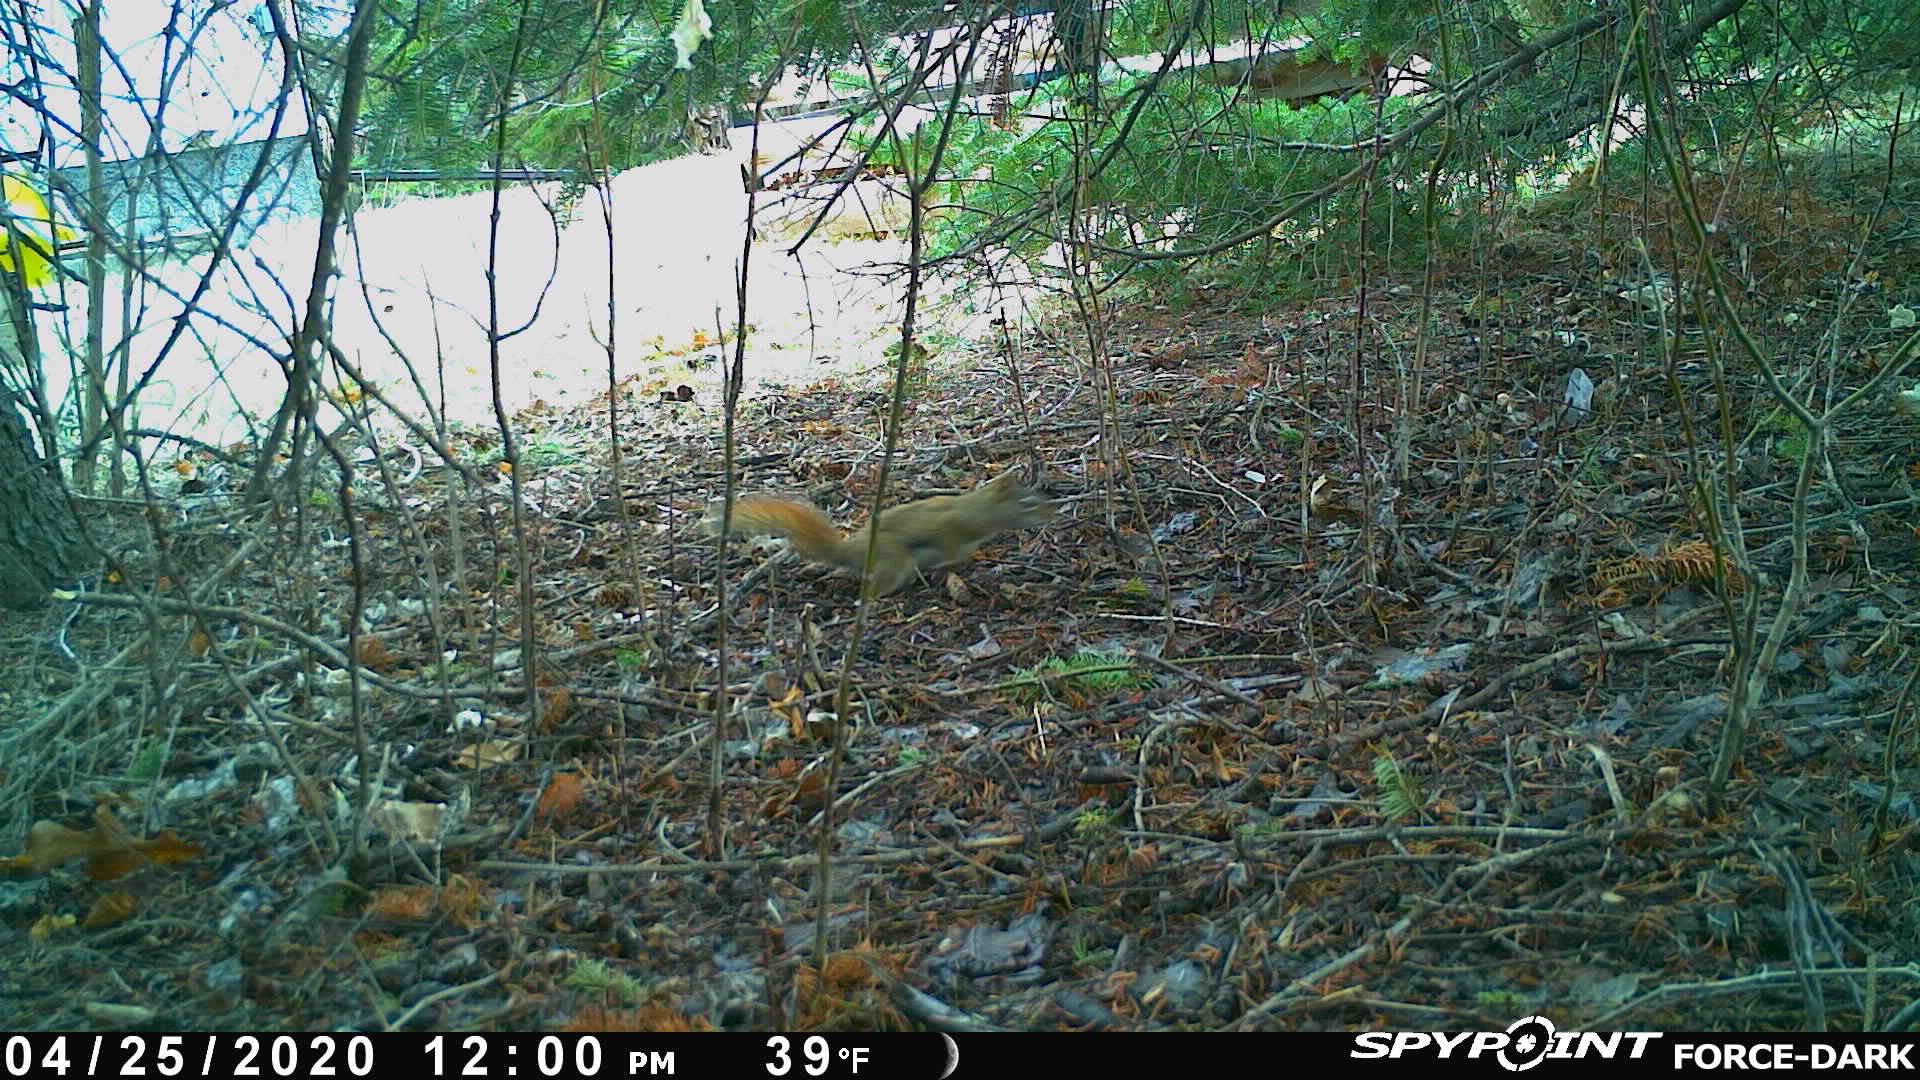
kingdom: Animalia
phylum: Chordata
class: Mammalia
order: Rodentia
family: Sciuridae
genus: Tamiasciurus
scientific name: Tamiasciurus hudsonicus
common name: Red squirrel
